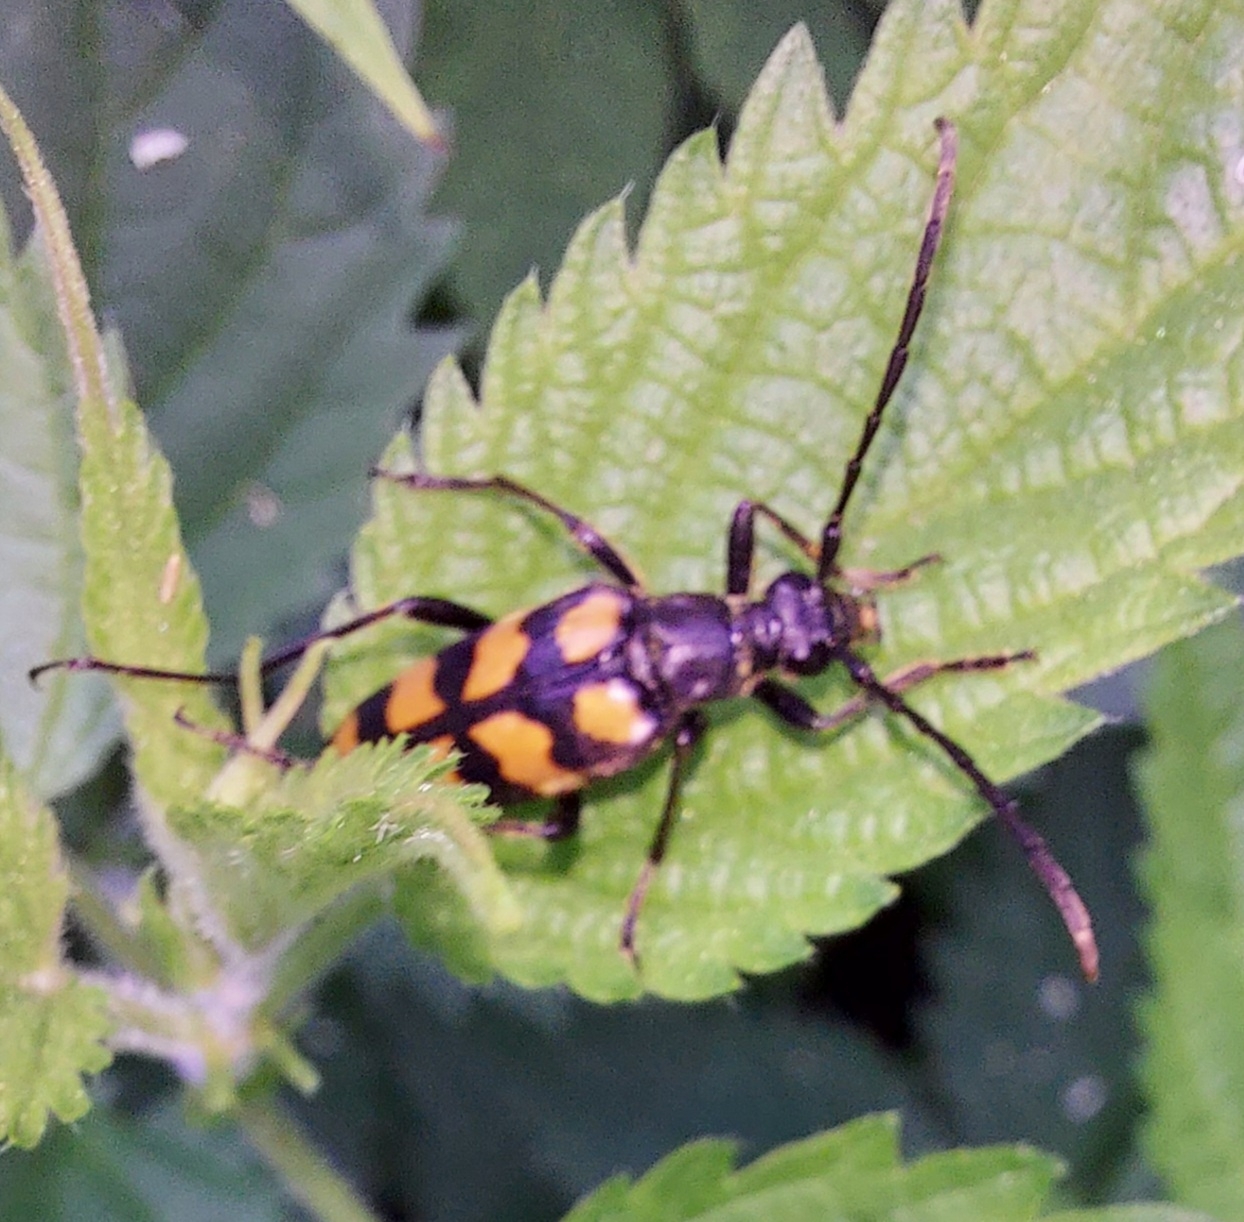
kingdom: Animalia
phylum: Arthropoda
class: Insecta
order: Coleoptera
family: Cerambycidae
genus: Leptura
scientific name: Leptura quadrifasciata
